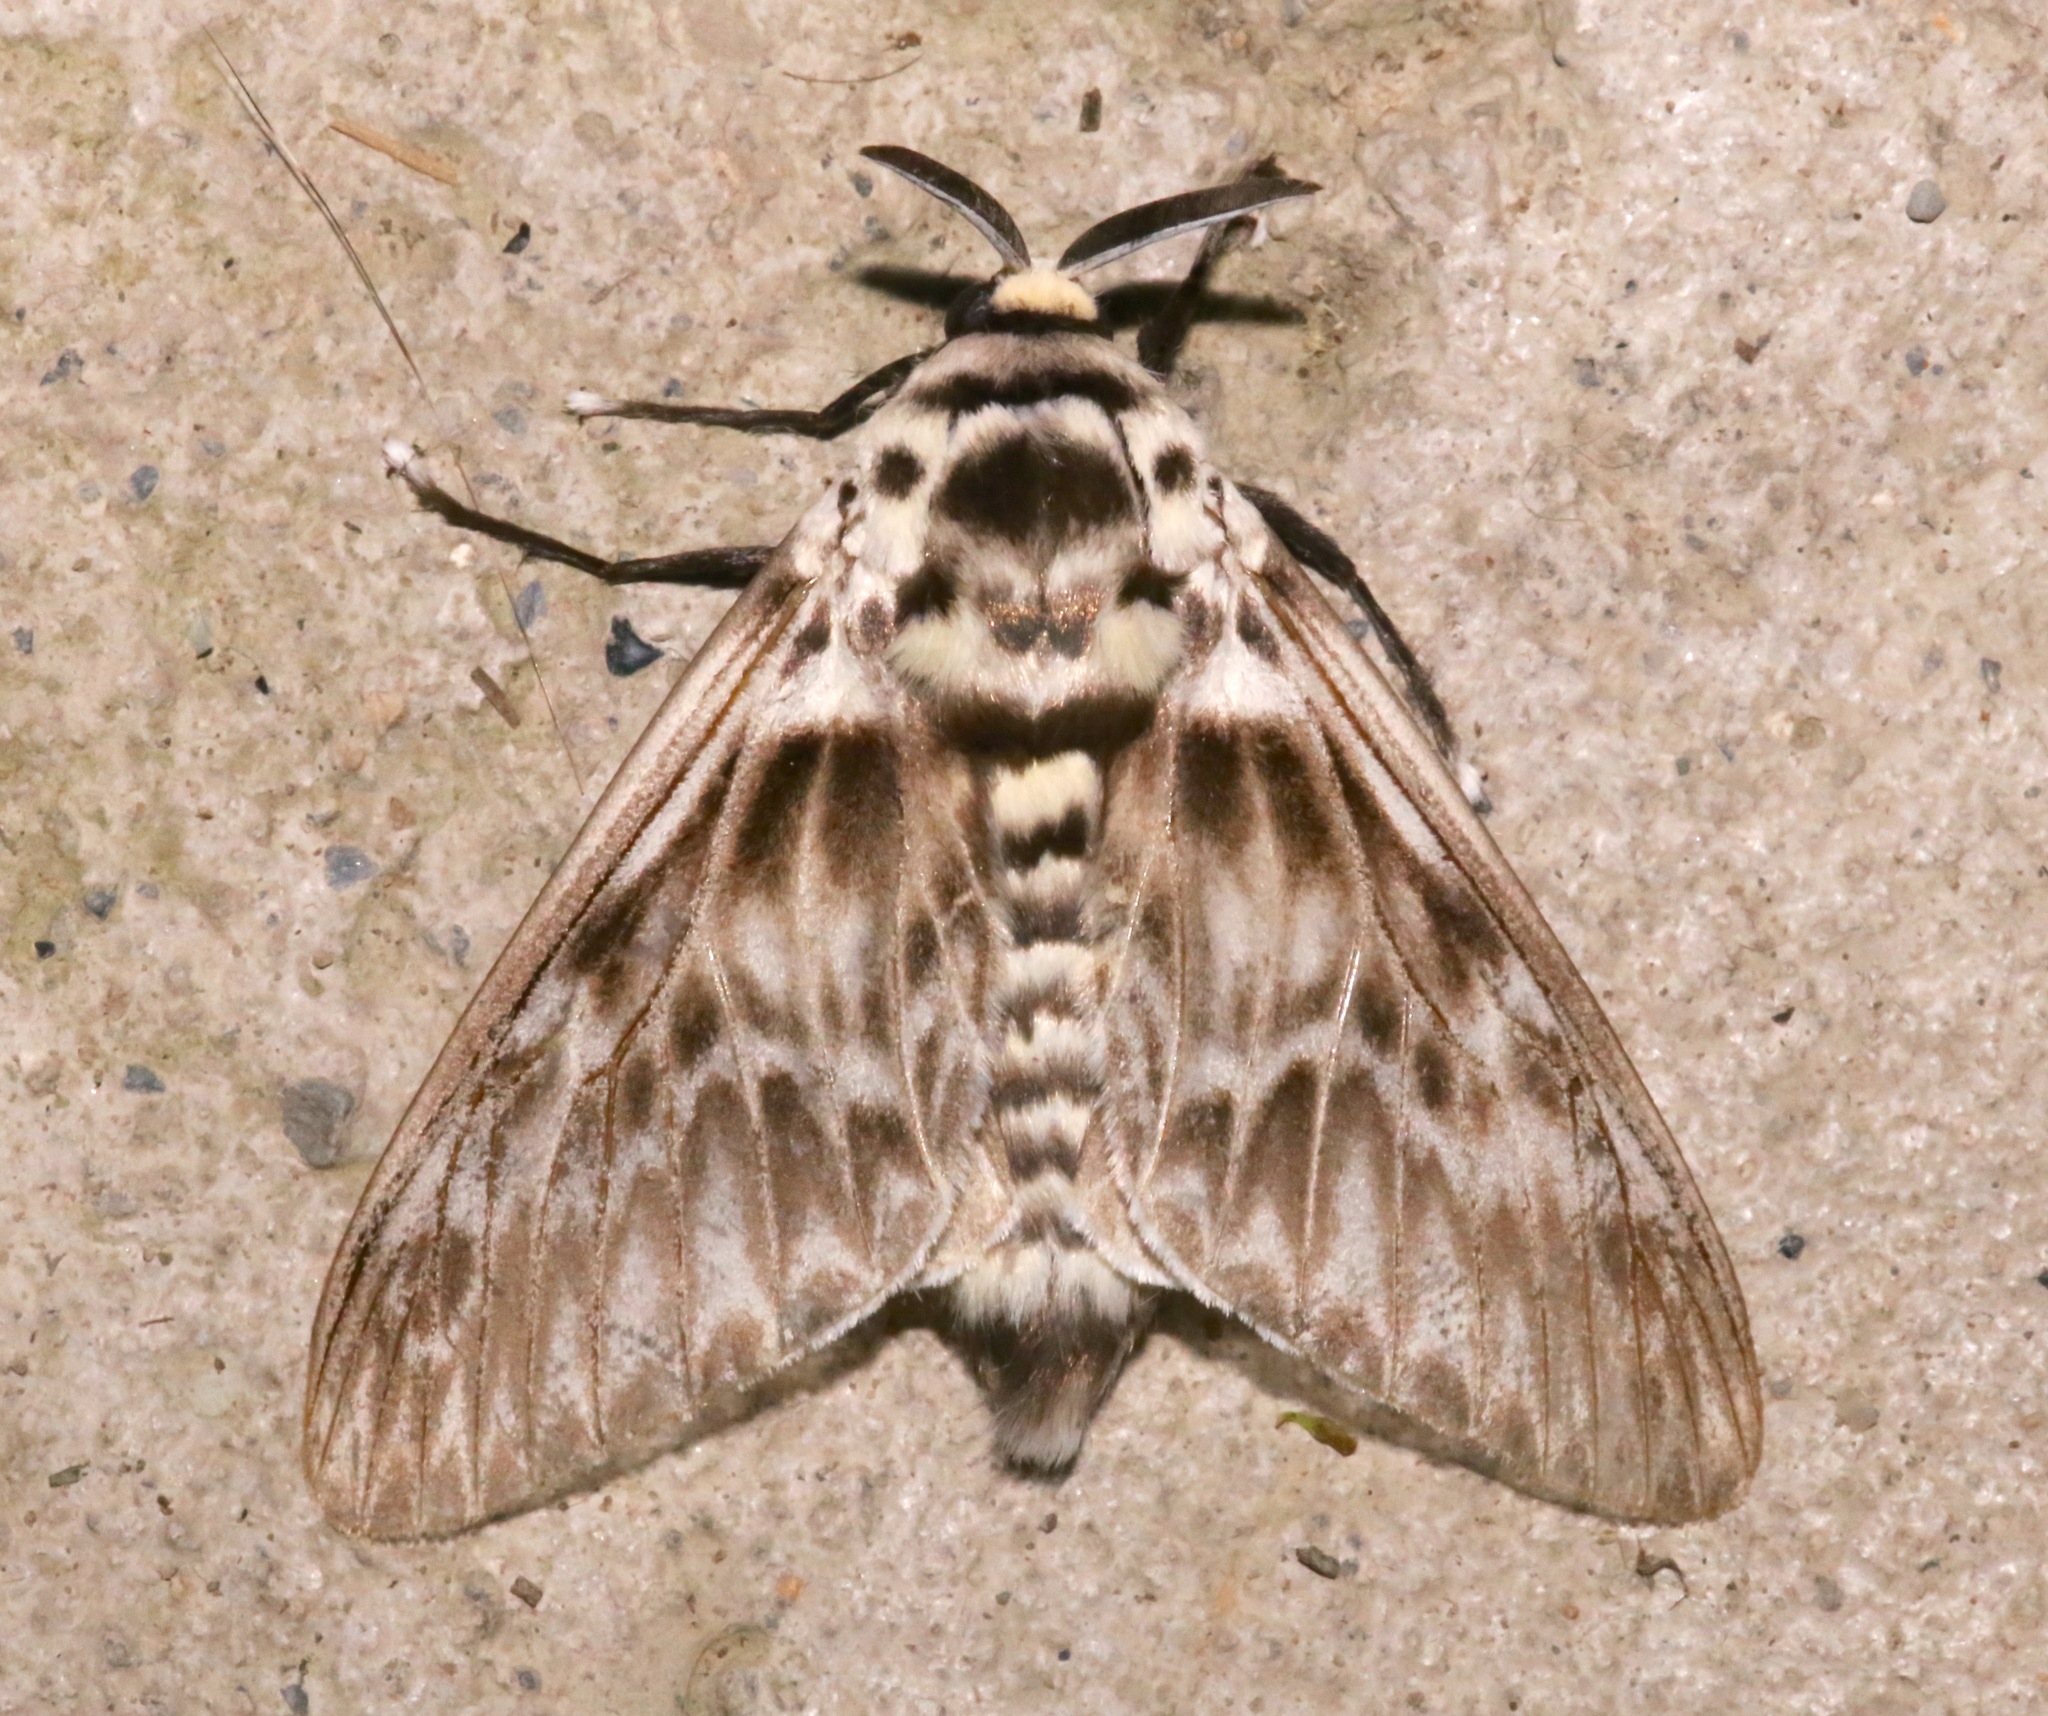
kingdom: Animalia
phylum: Arthropoda
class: Insecta
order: Lepidoptera
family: Megalopygidae
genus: Podalia
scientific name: Podalia orsilochus
